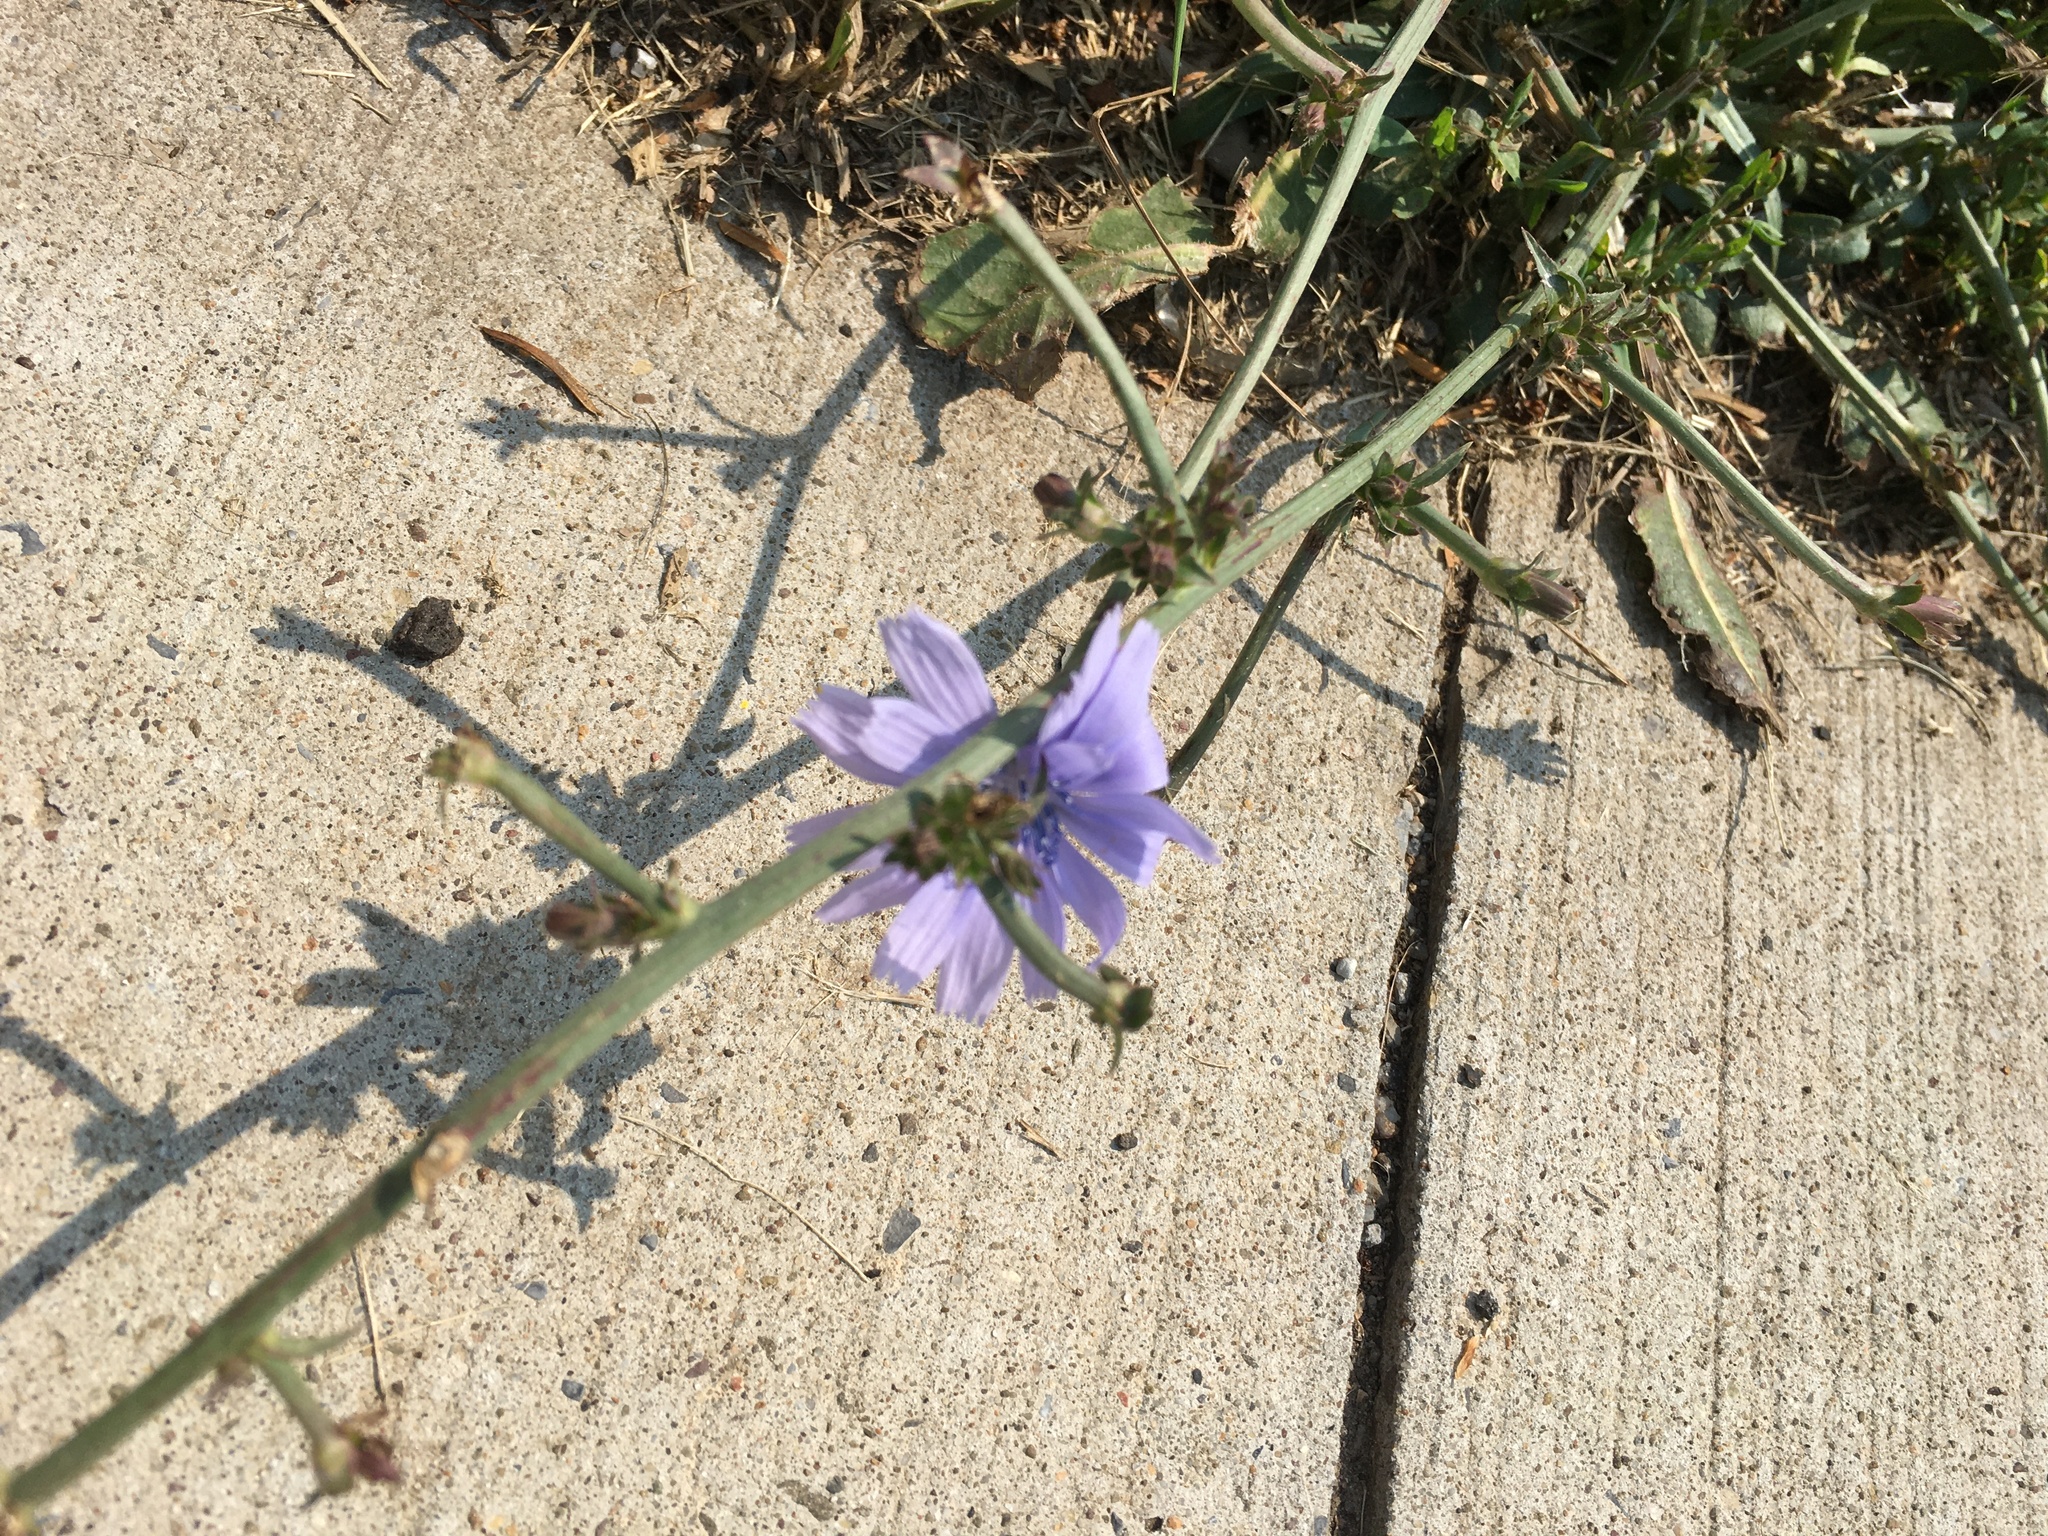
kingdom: Plantae
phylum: Tracheophyta
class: Magnoliopsida
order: Asterales
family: Asteraceae
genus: Cichorium
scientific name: Cichorium intybus
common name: Chicory
